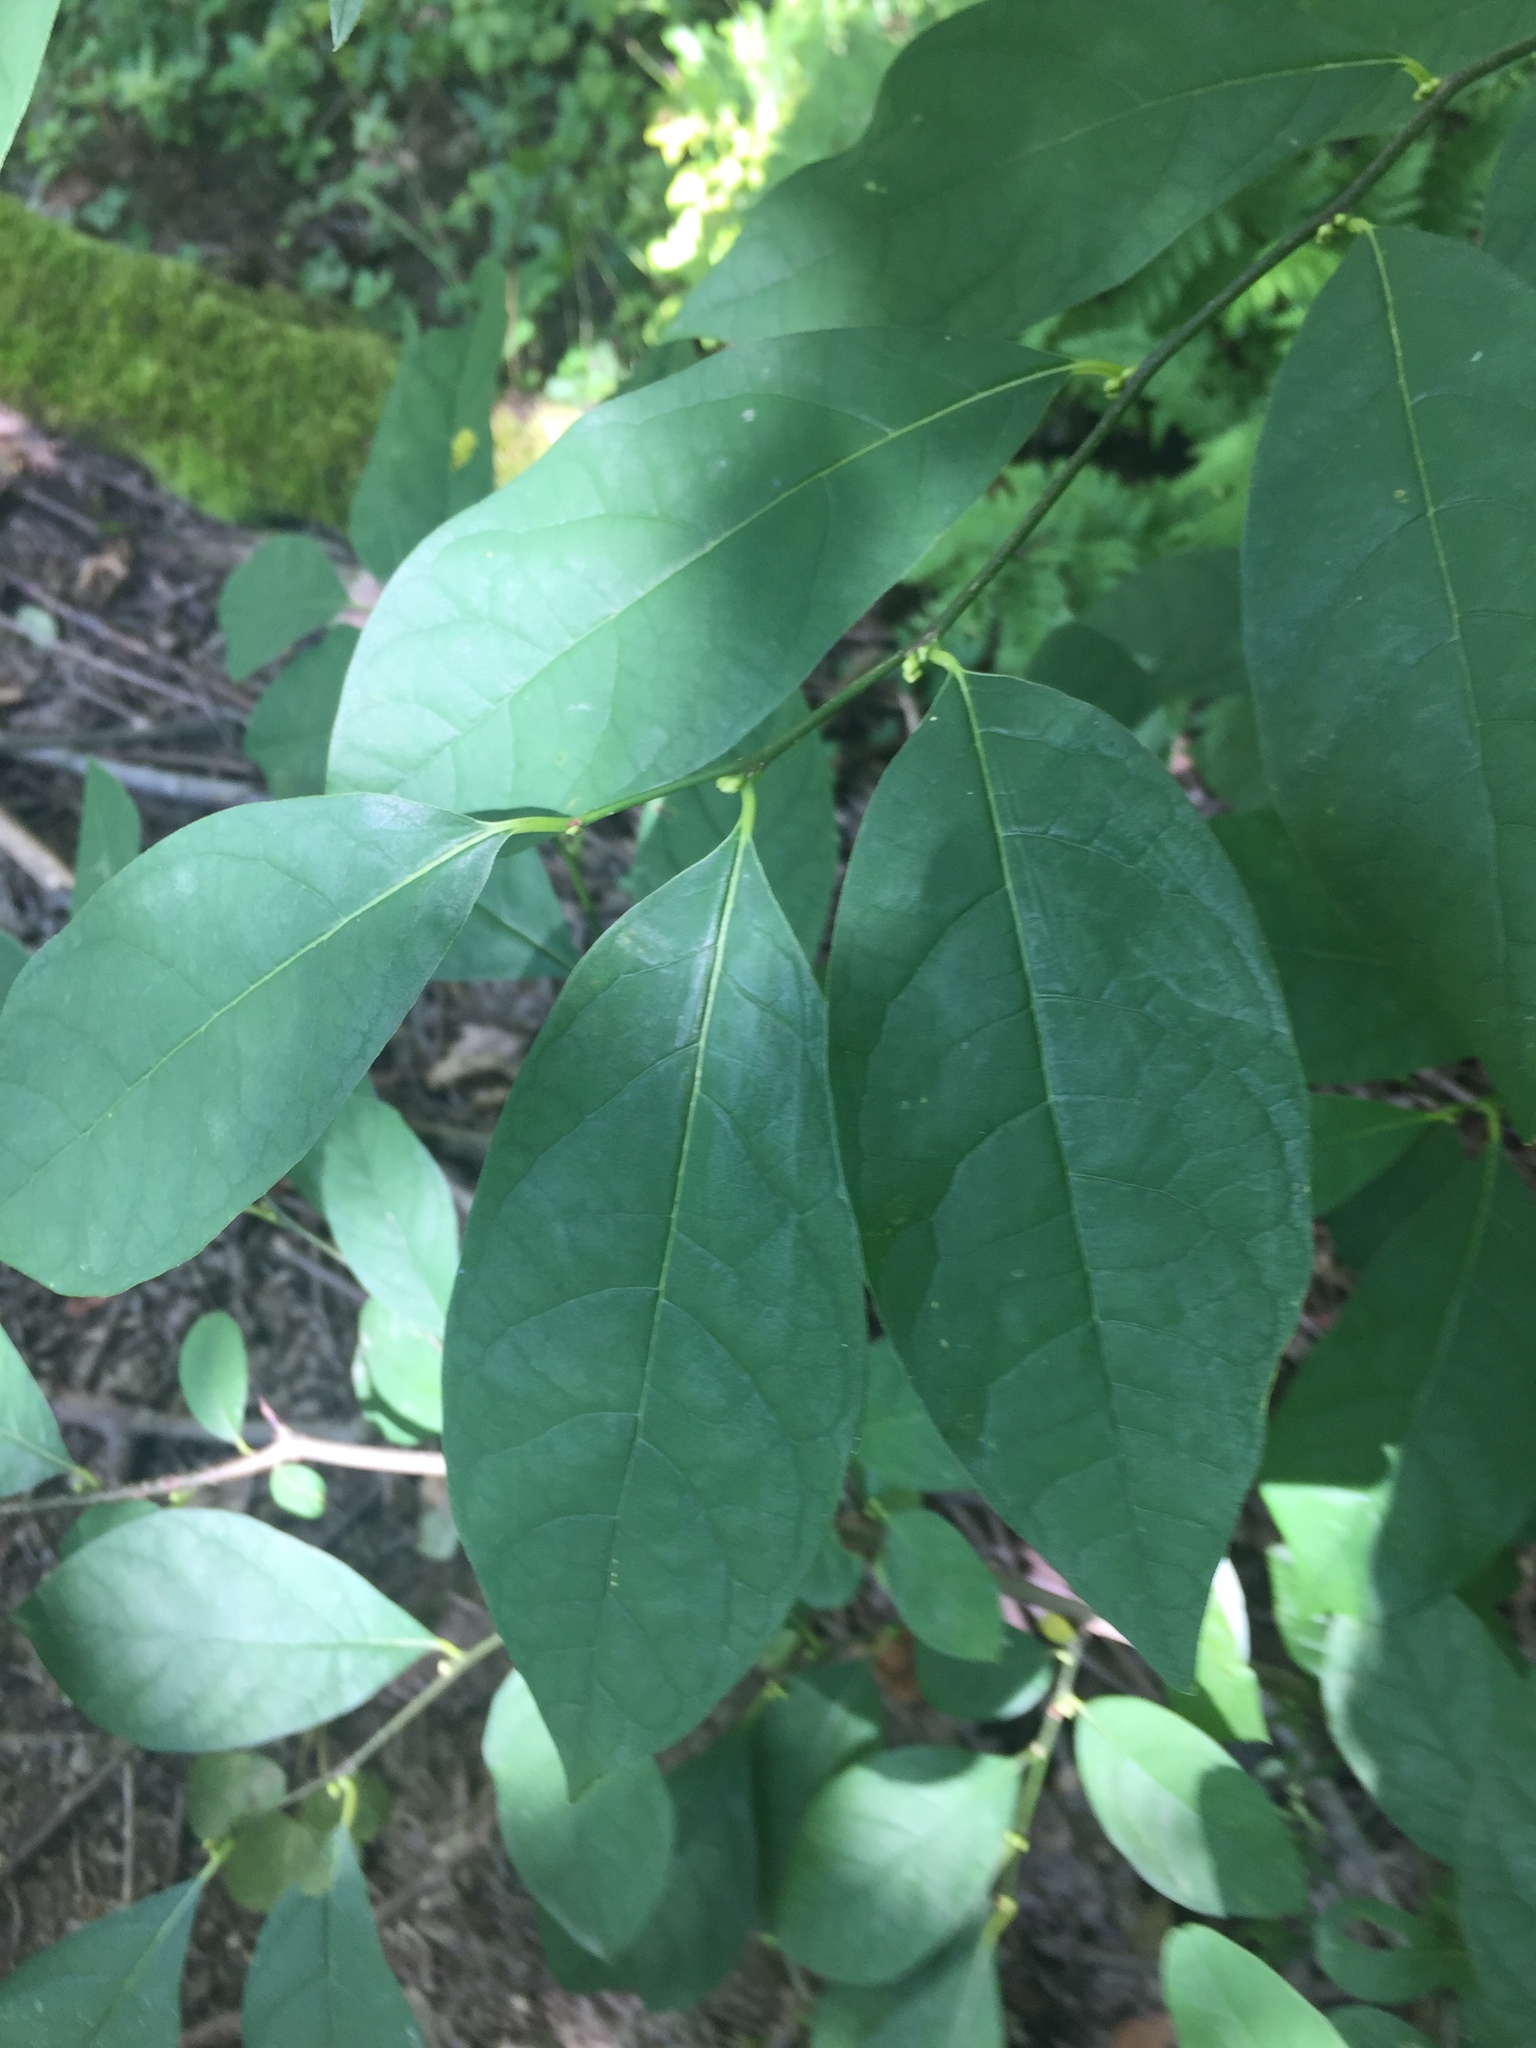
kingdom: Plantae
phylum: Tracheophyta
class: Magnoliopsida
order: Laurales
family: Lauraceae
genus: Lindera
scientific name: Lindera benzoin
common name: Spicebush
